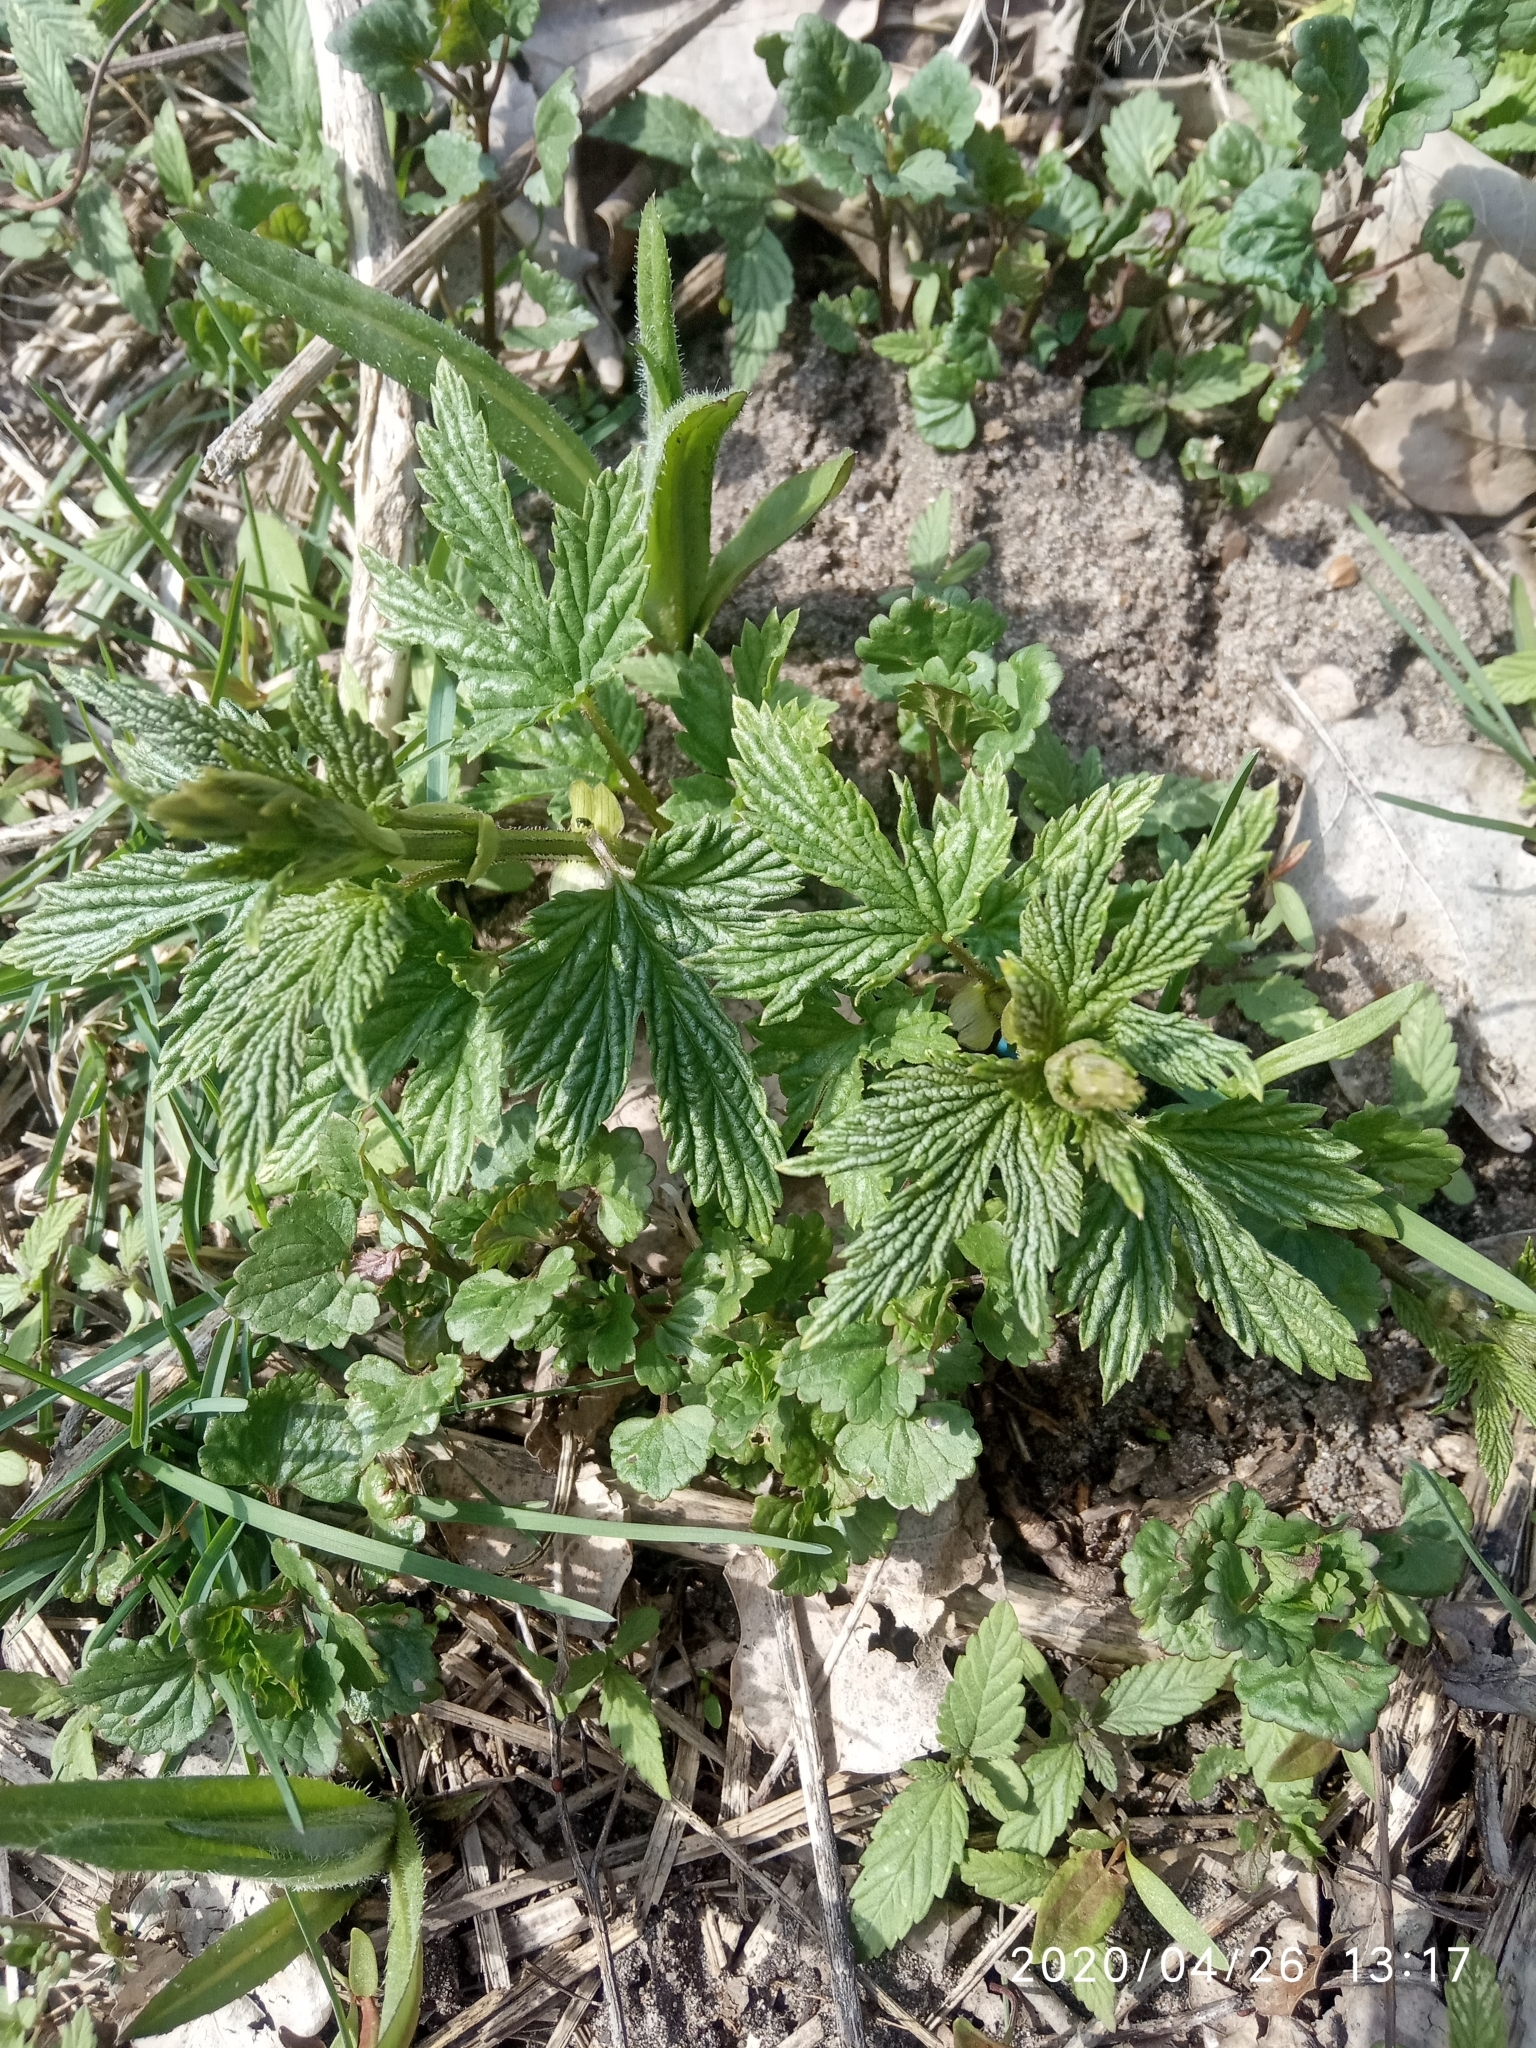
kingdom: Plantae
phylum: Tracheophyta
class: Magnoliopsida
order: Rosales
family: Cannabaceae
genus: Humulus
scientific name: Humulus lupulus
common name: Hop
